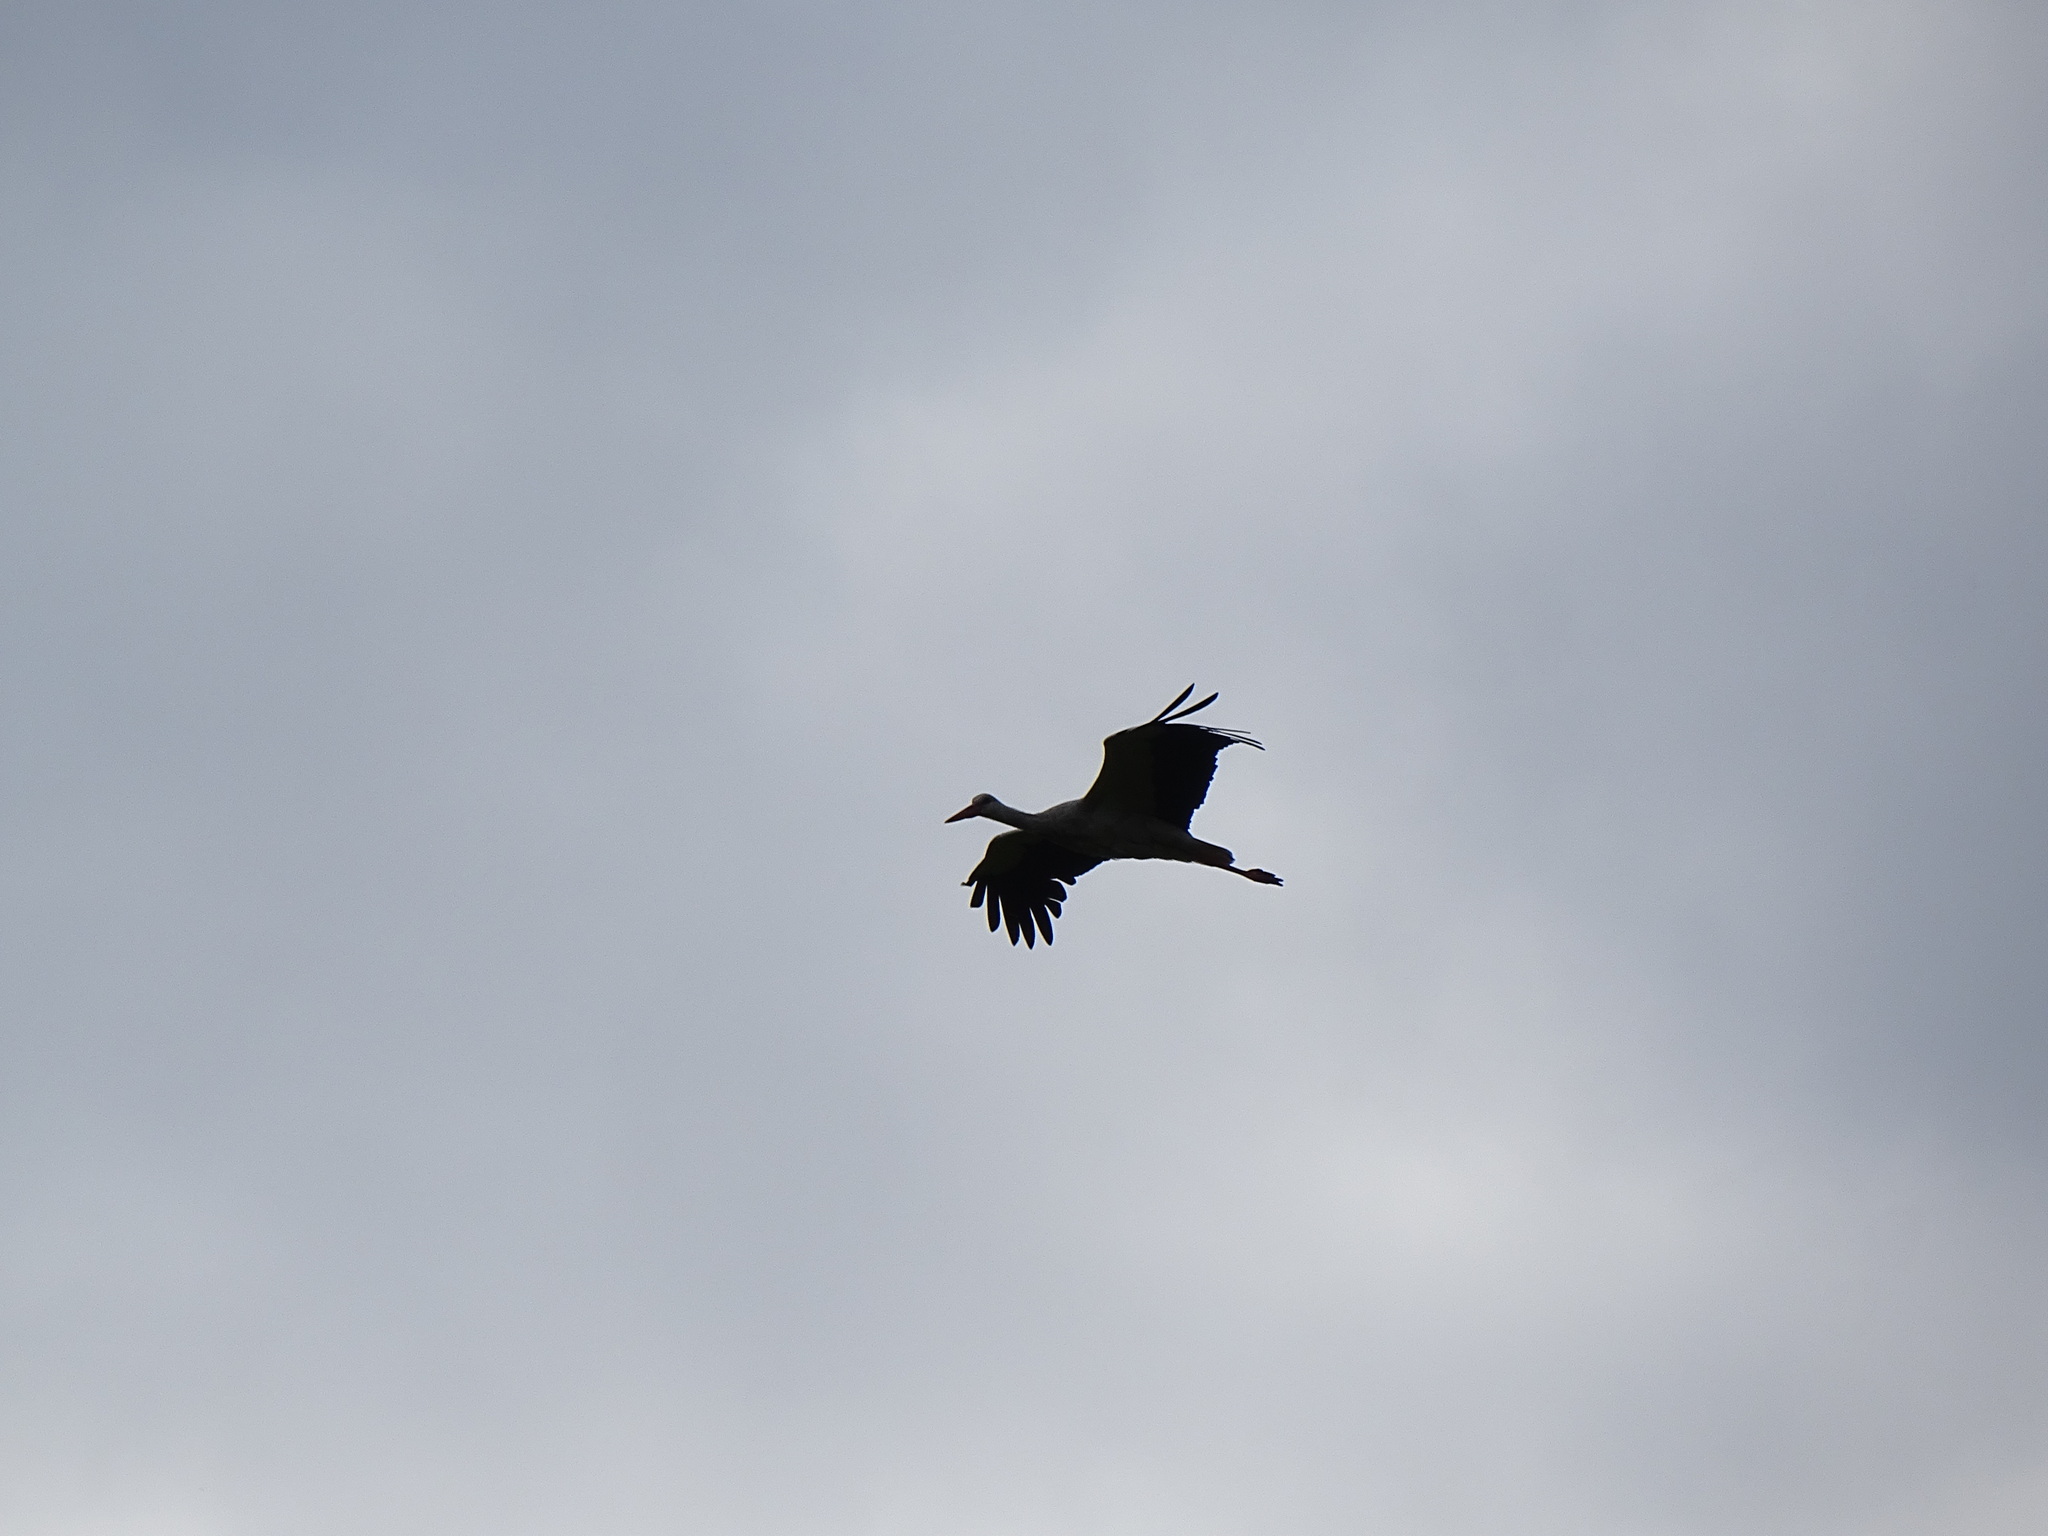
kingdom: Animalia
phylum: Chordata
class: Aves
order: Ciconiiformes
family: Ciconiidae
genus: Ciconia
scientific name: Ciconia ciconia
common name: White stork
